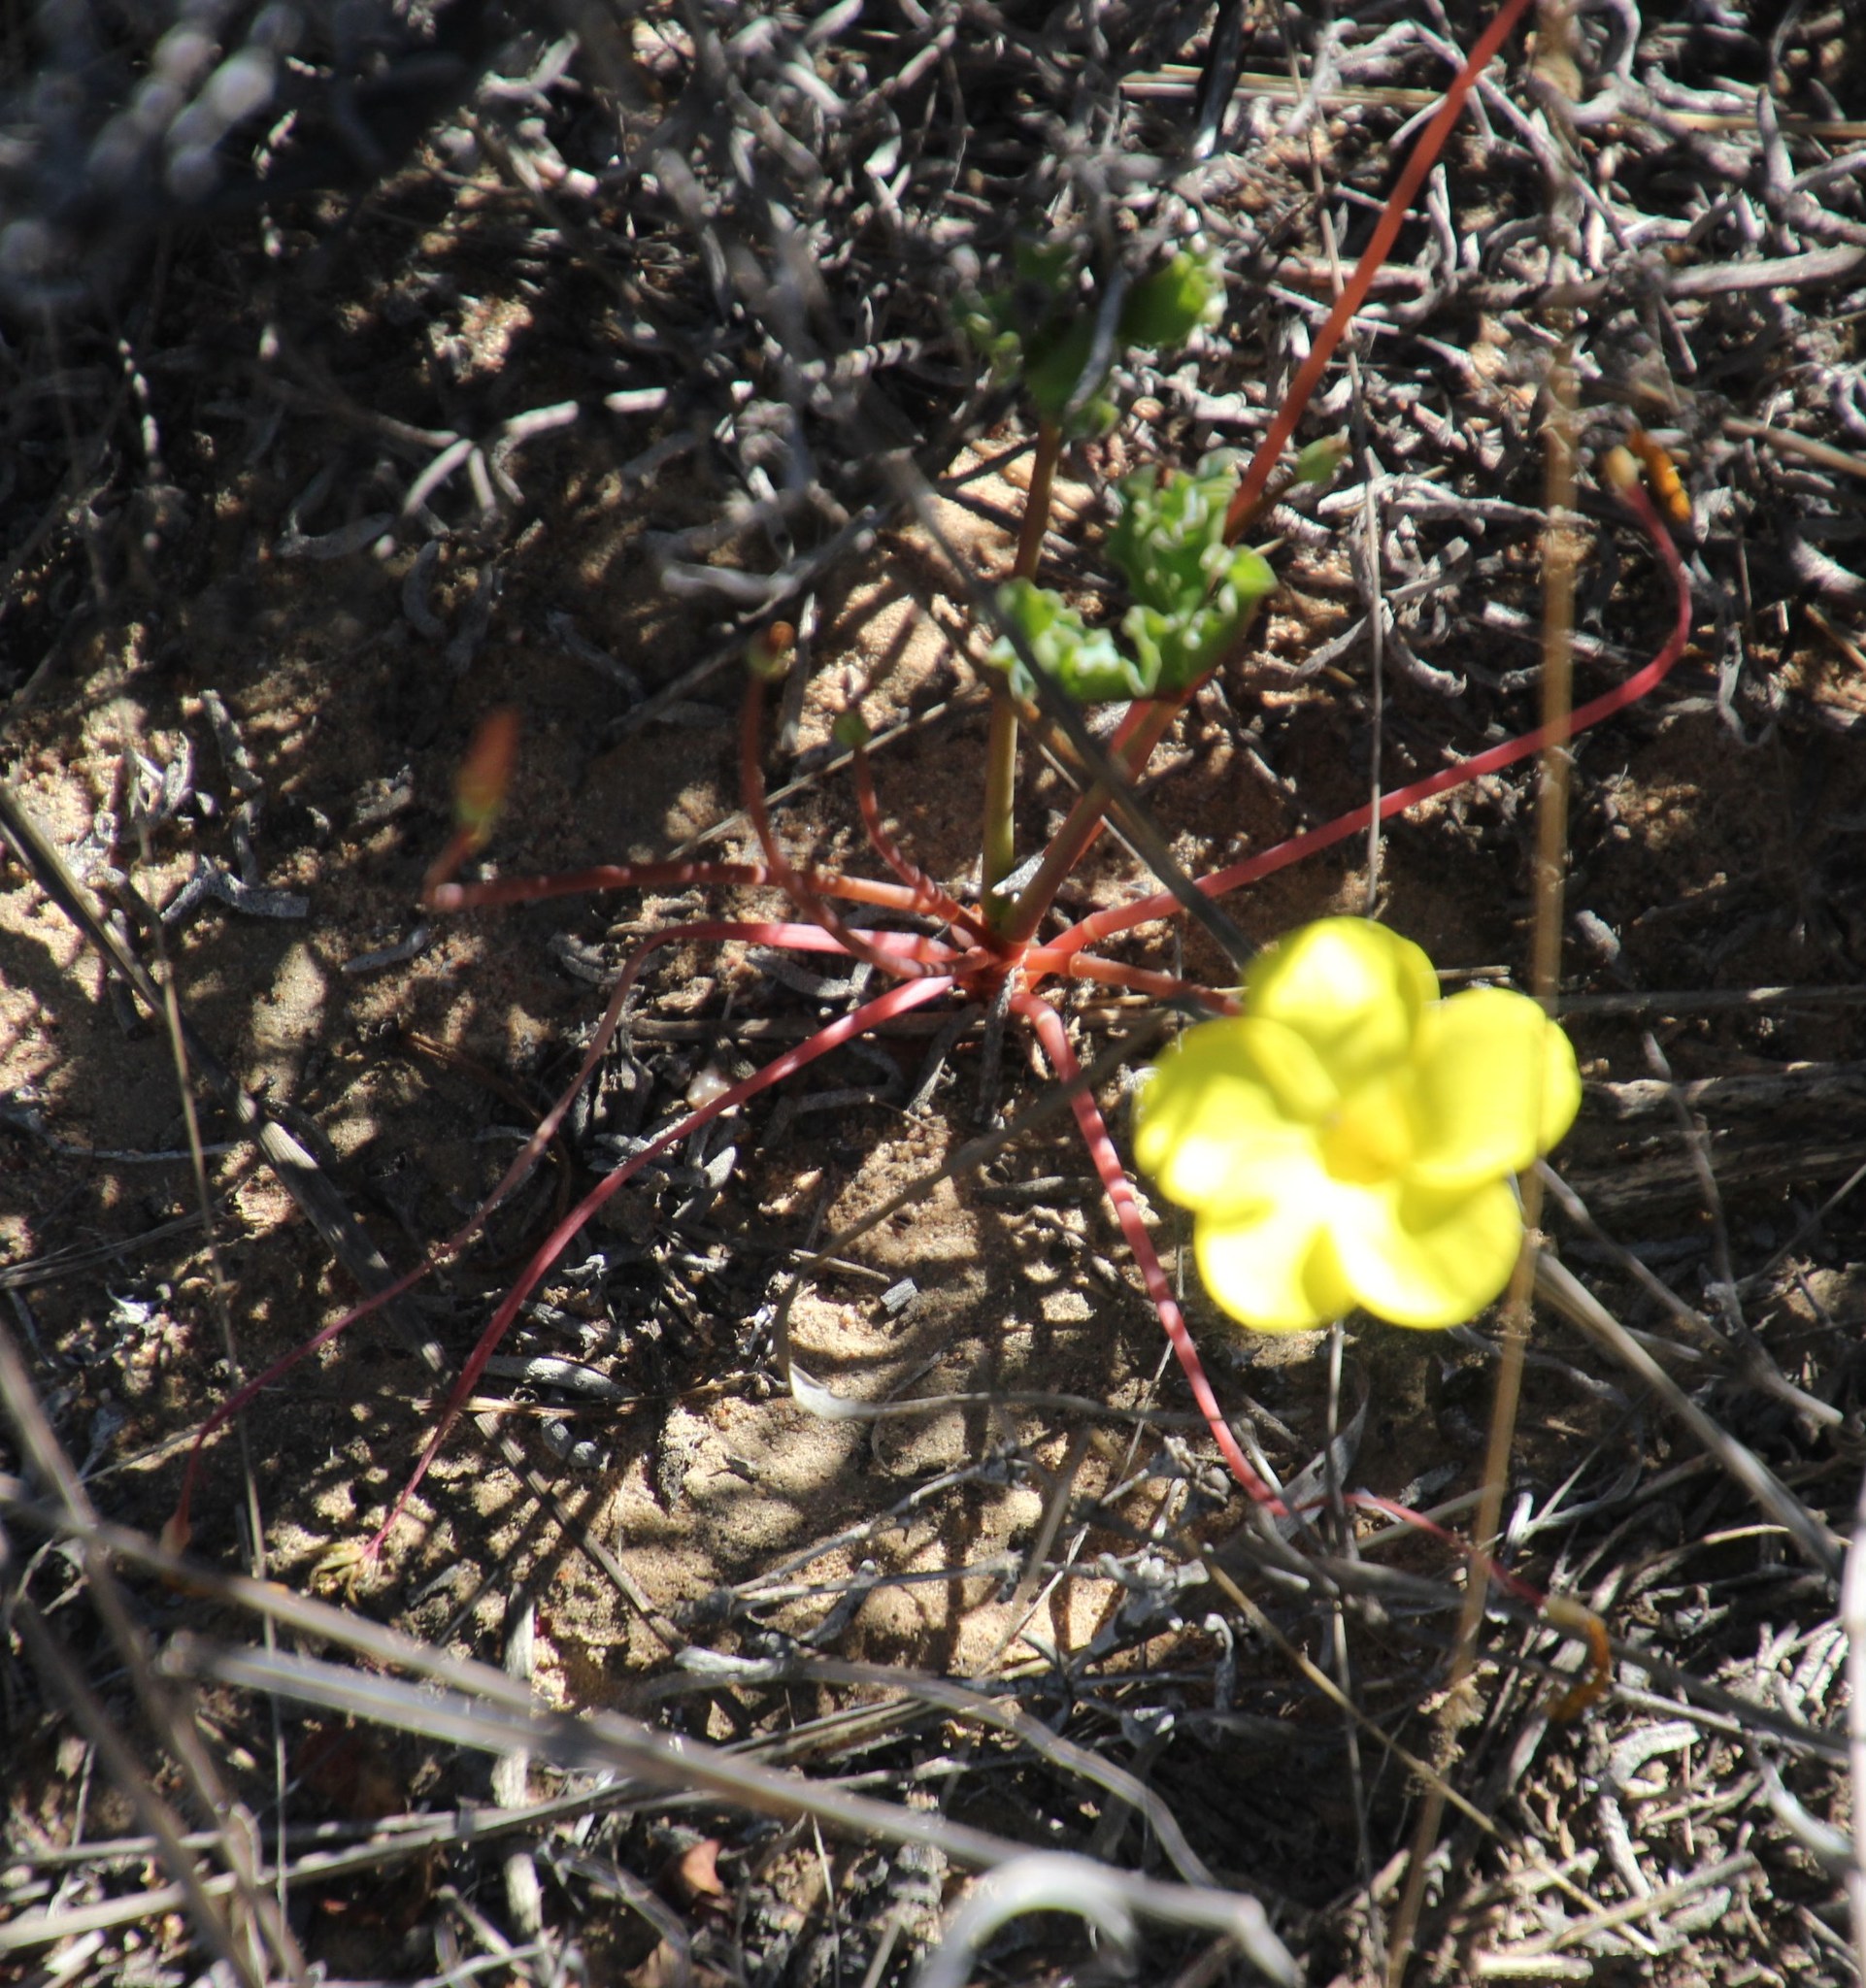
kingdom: Plantae
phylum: Tracheophyta
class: Magnoliopsida
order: Oxalidales
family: Oxalidaceae
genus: Oxalis
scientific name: Oxalis flava
